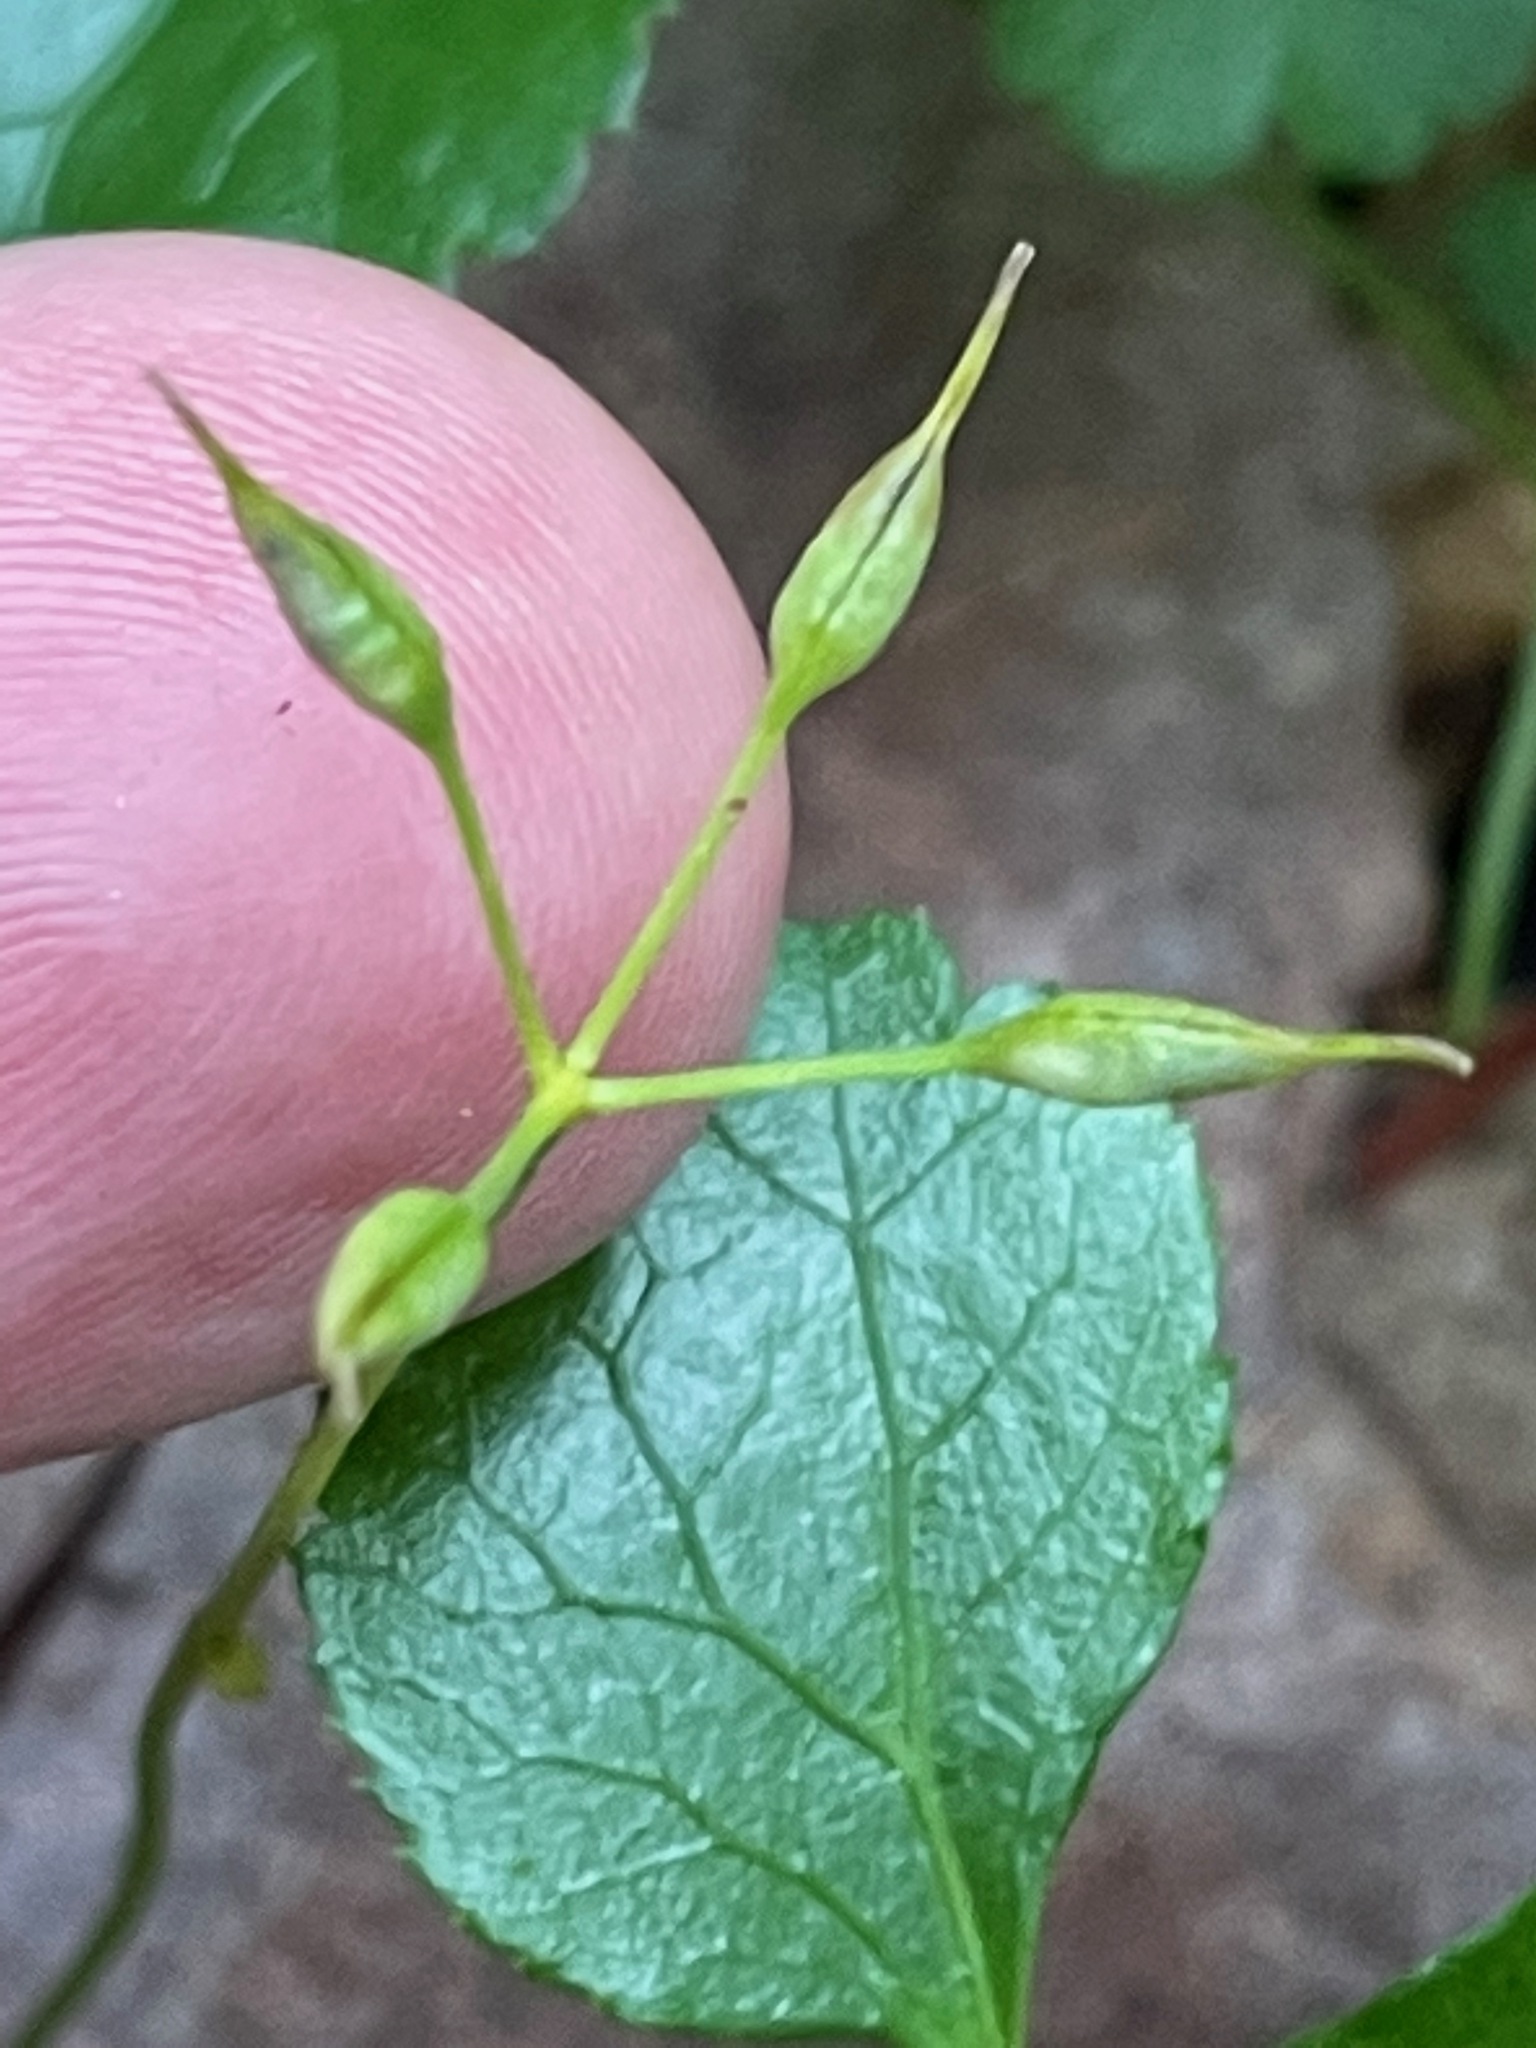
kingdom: Plantae
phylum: Tracheophyta
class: Magnoliopsida
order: Ranunculales
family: Ranunculaceae
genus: Coptis
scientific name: Coptis trifolia
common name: Canker-root
